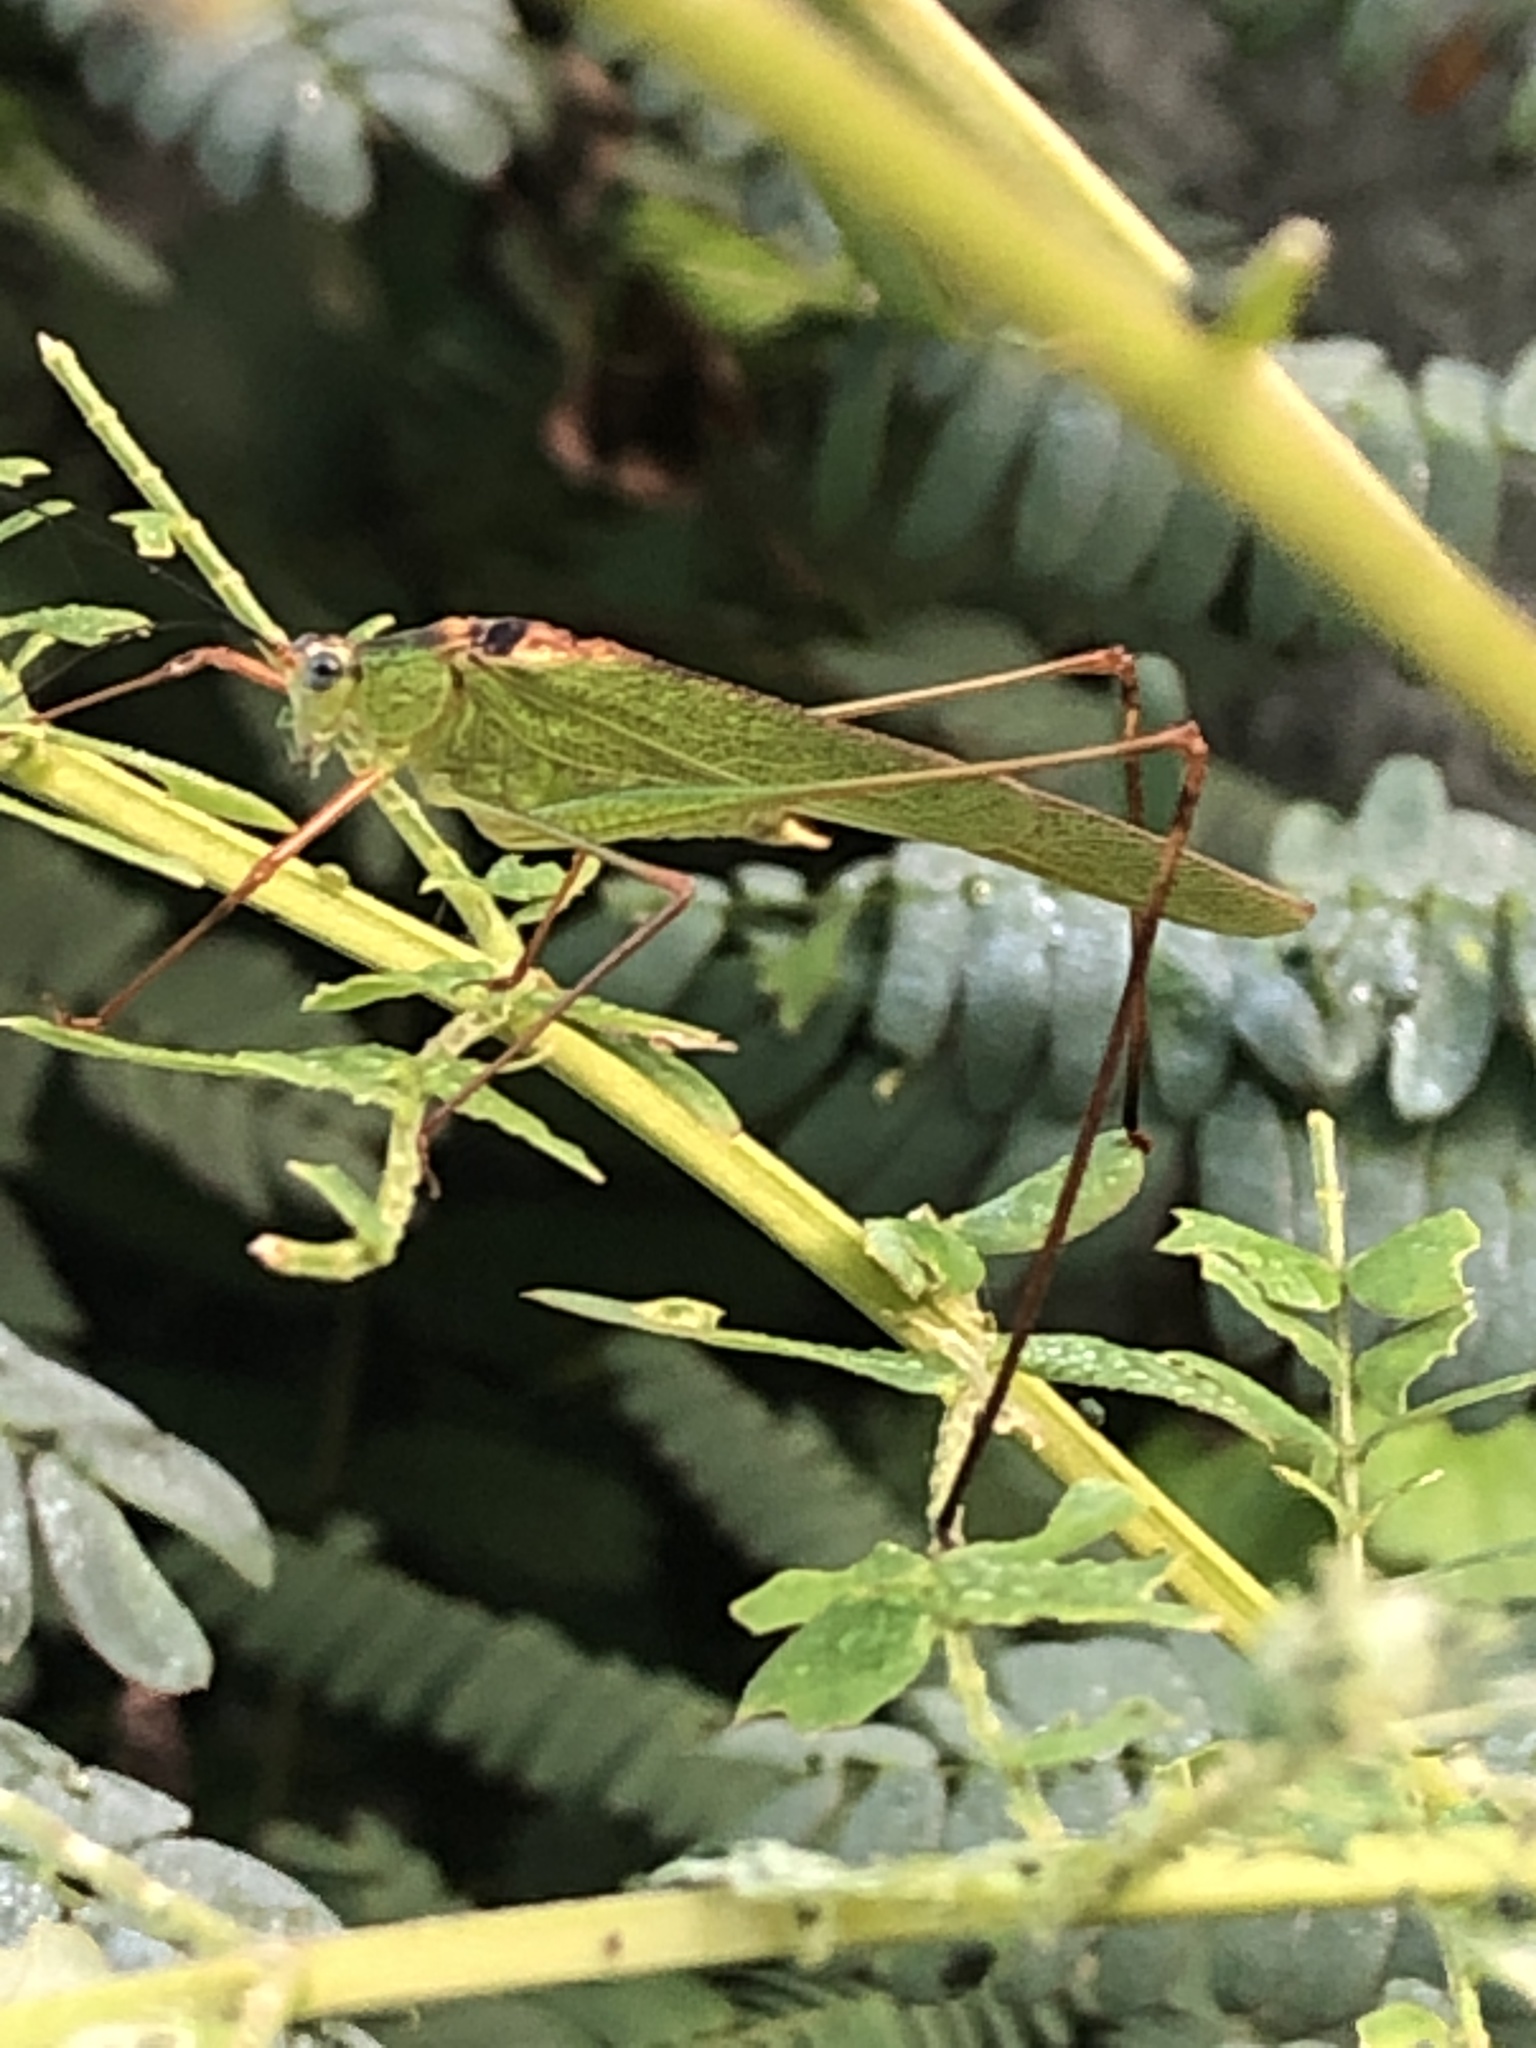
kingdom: Animalia
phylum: Arthropoda
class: Insecta
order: Orthoptera
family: Tettigoniidae
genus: Phaneroptera
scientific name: Phaneroptera nigroantennata
